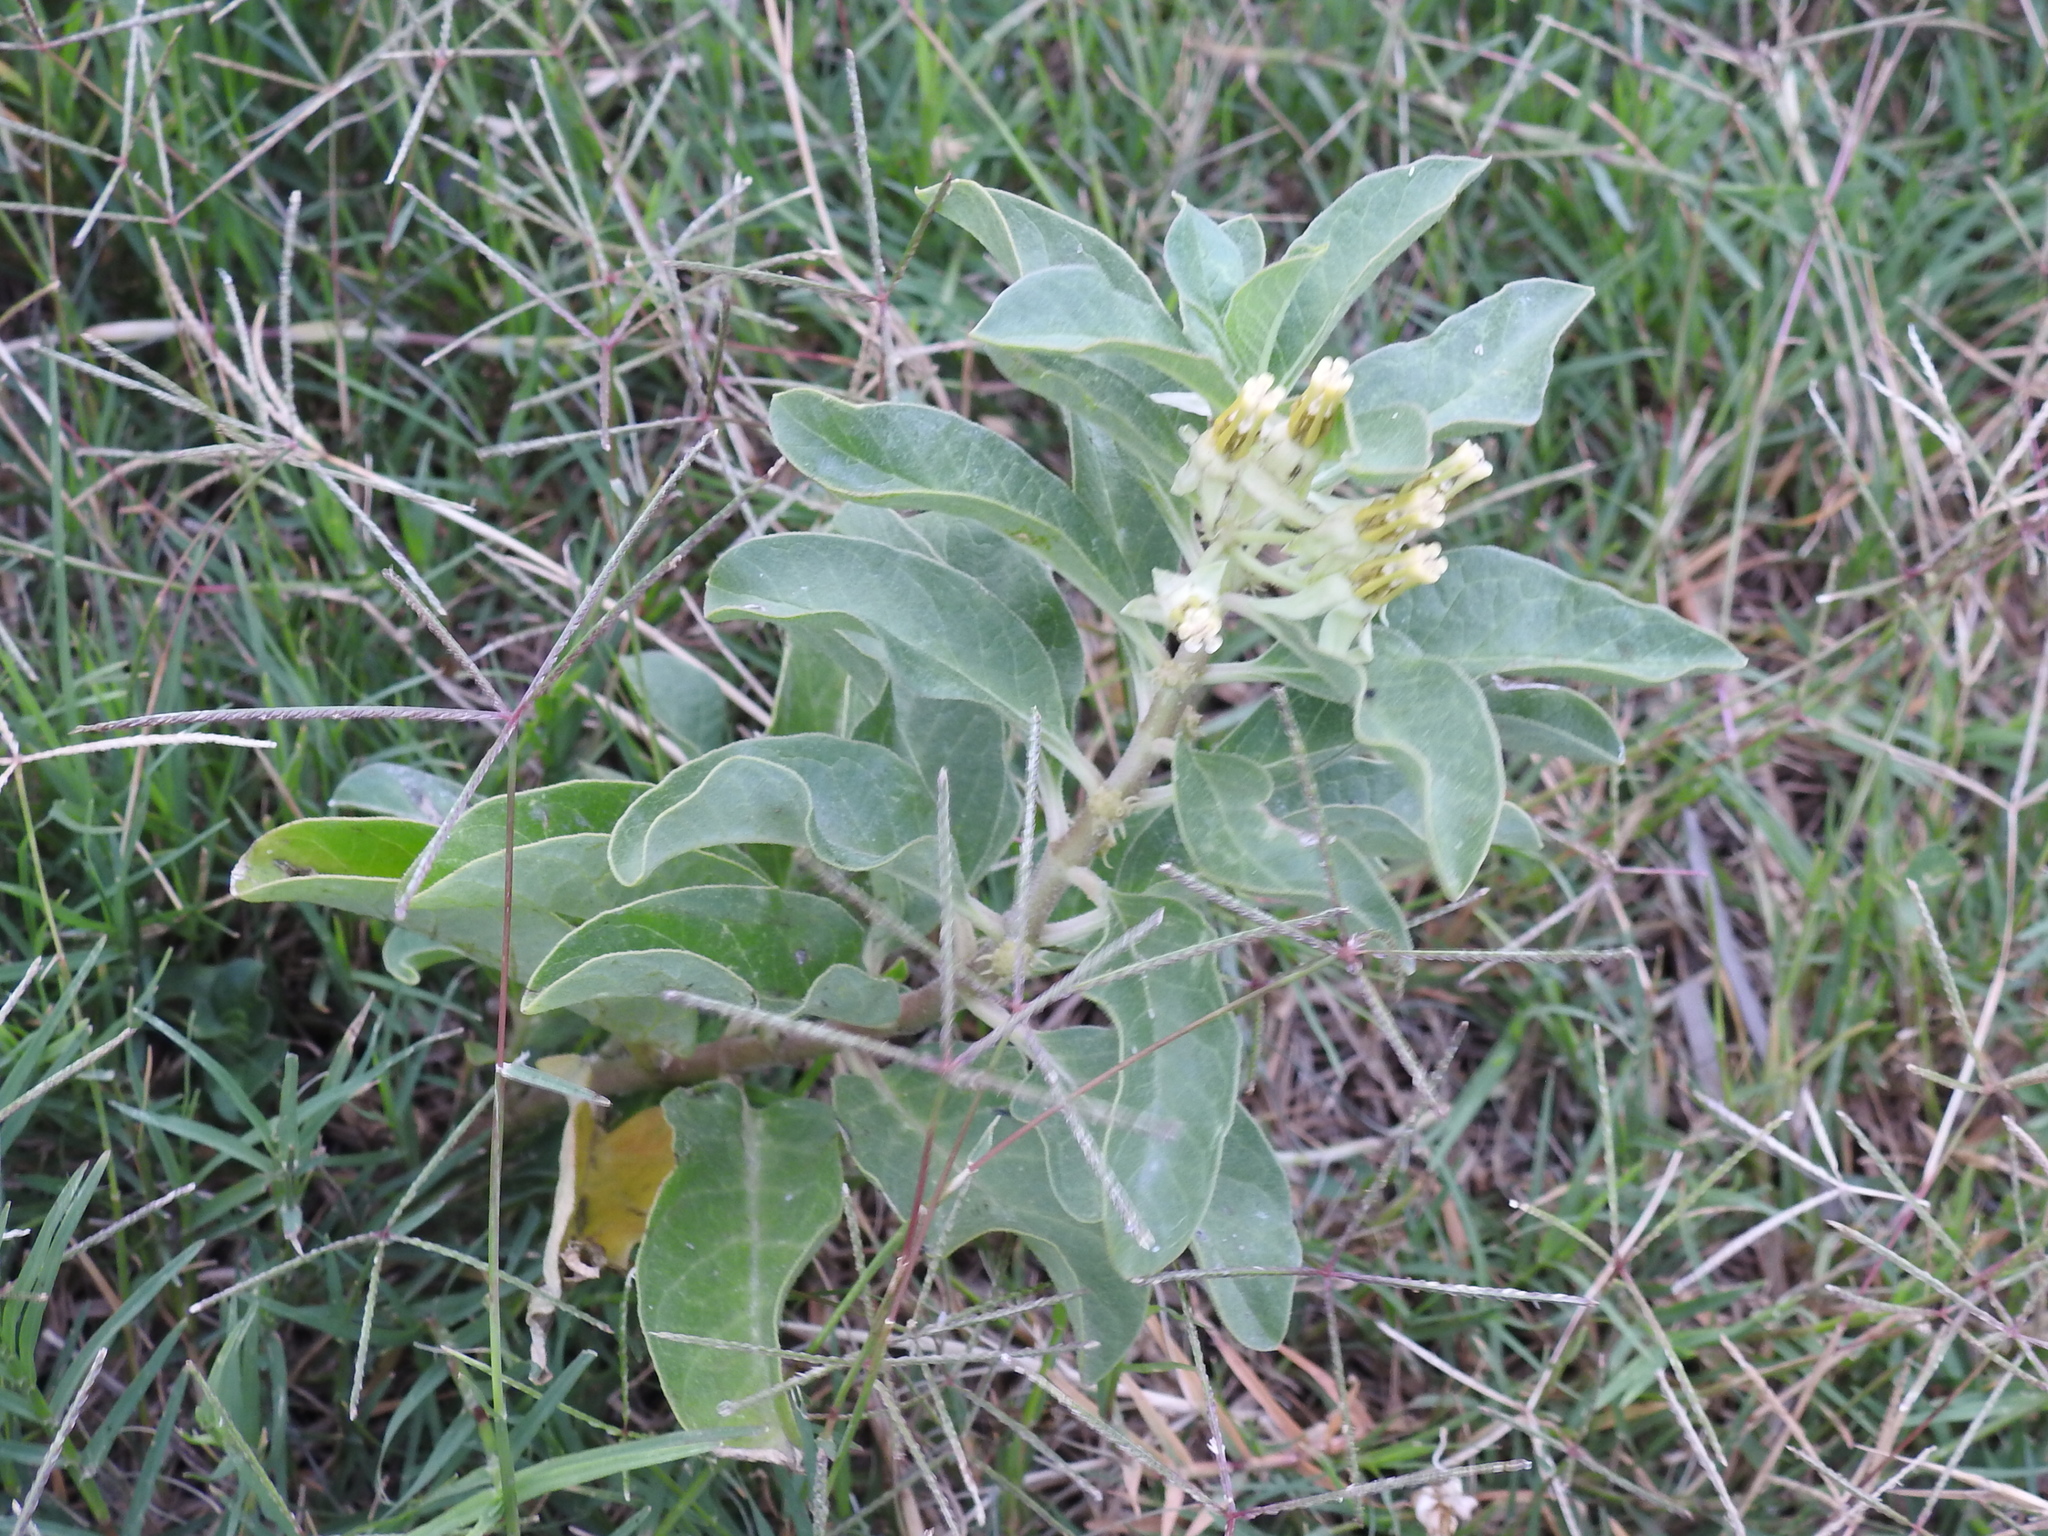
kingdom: Plantae
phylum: Tracheophyta
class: Magnoliopsida
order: Gentianales
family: Apocynaceae
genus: Asclepias
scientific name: Asclepias oenotheroides
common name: Zizotes milkweed
